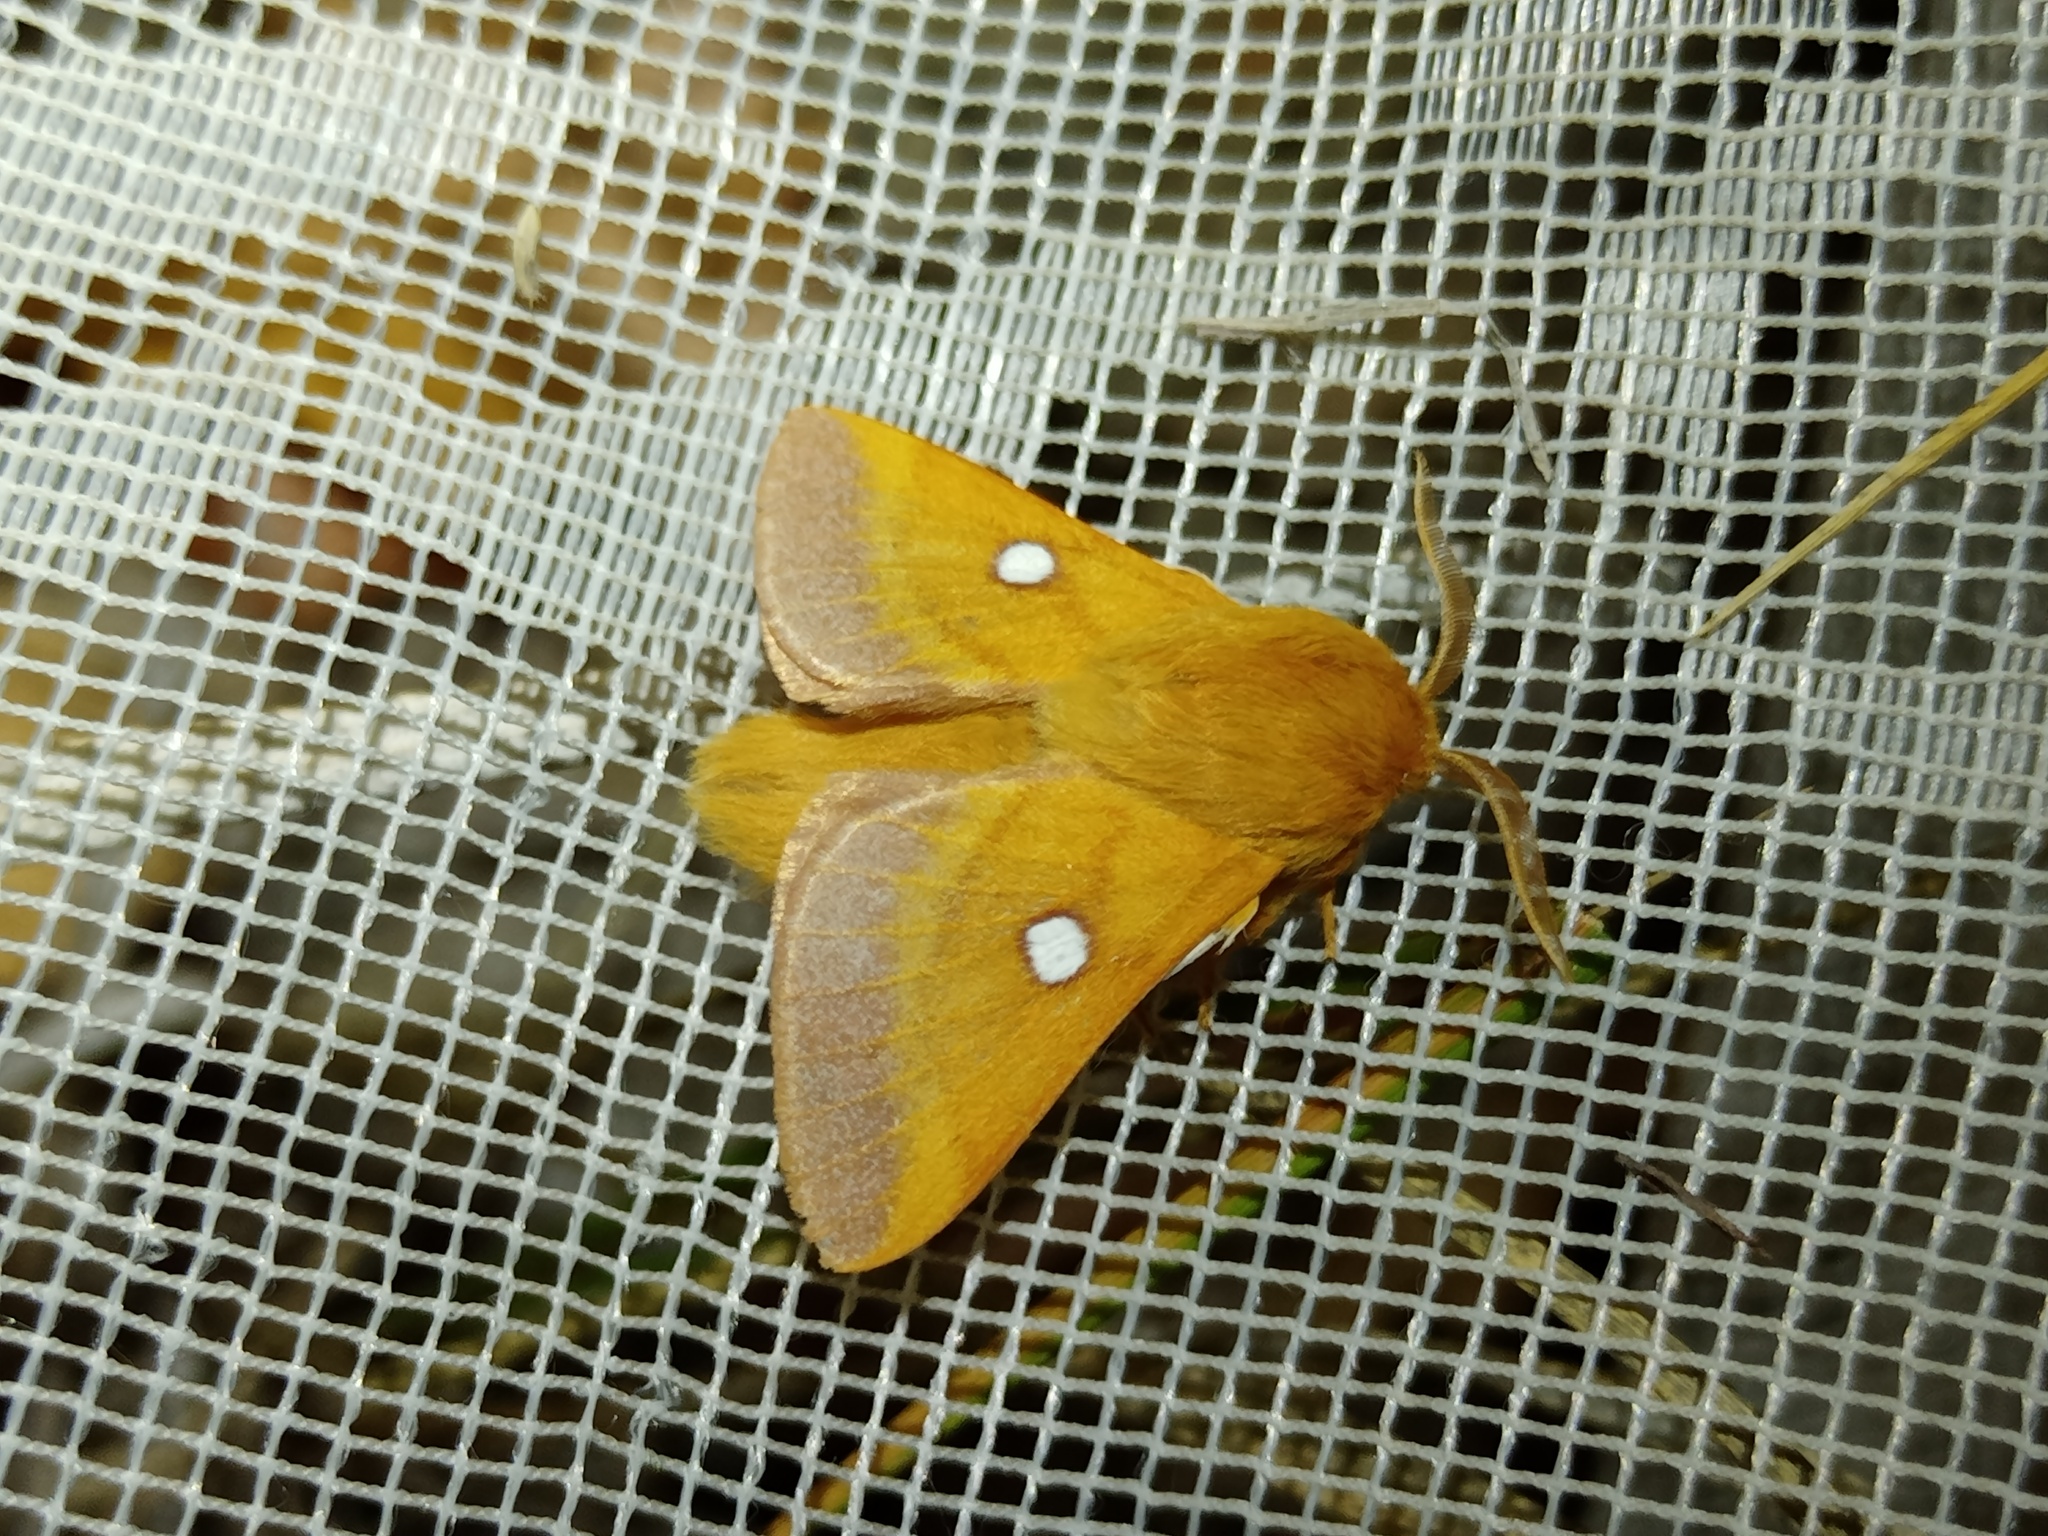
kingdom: Animalia
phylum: Arthropoda
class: Insecta
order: Lepidoptera
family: Lasiocampidae
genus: Eriogaster
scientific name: Eriogaster catax
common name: Eastern eggar
